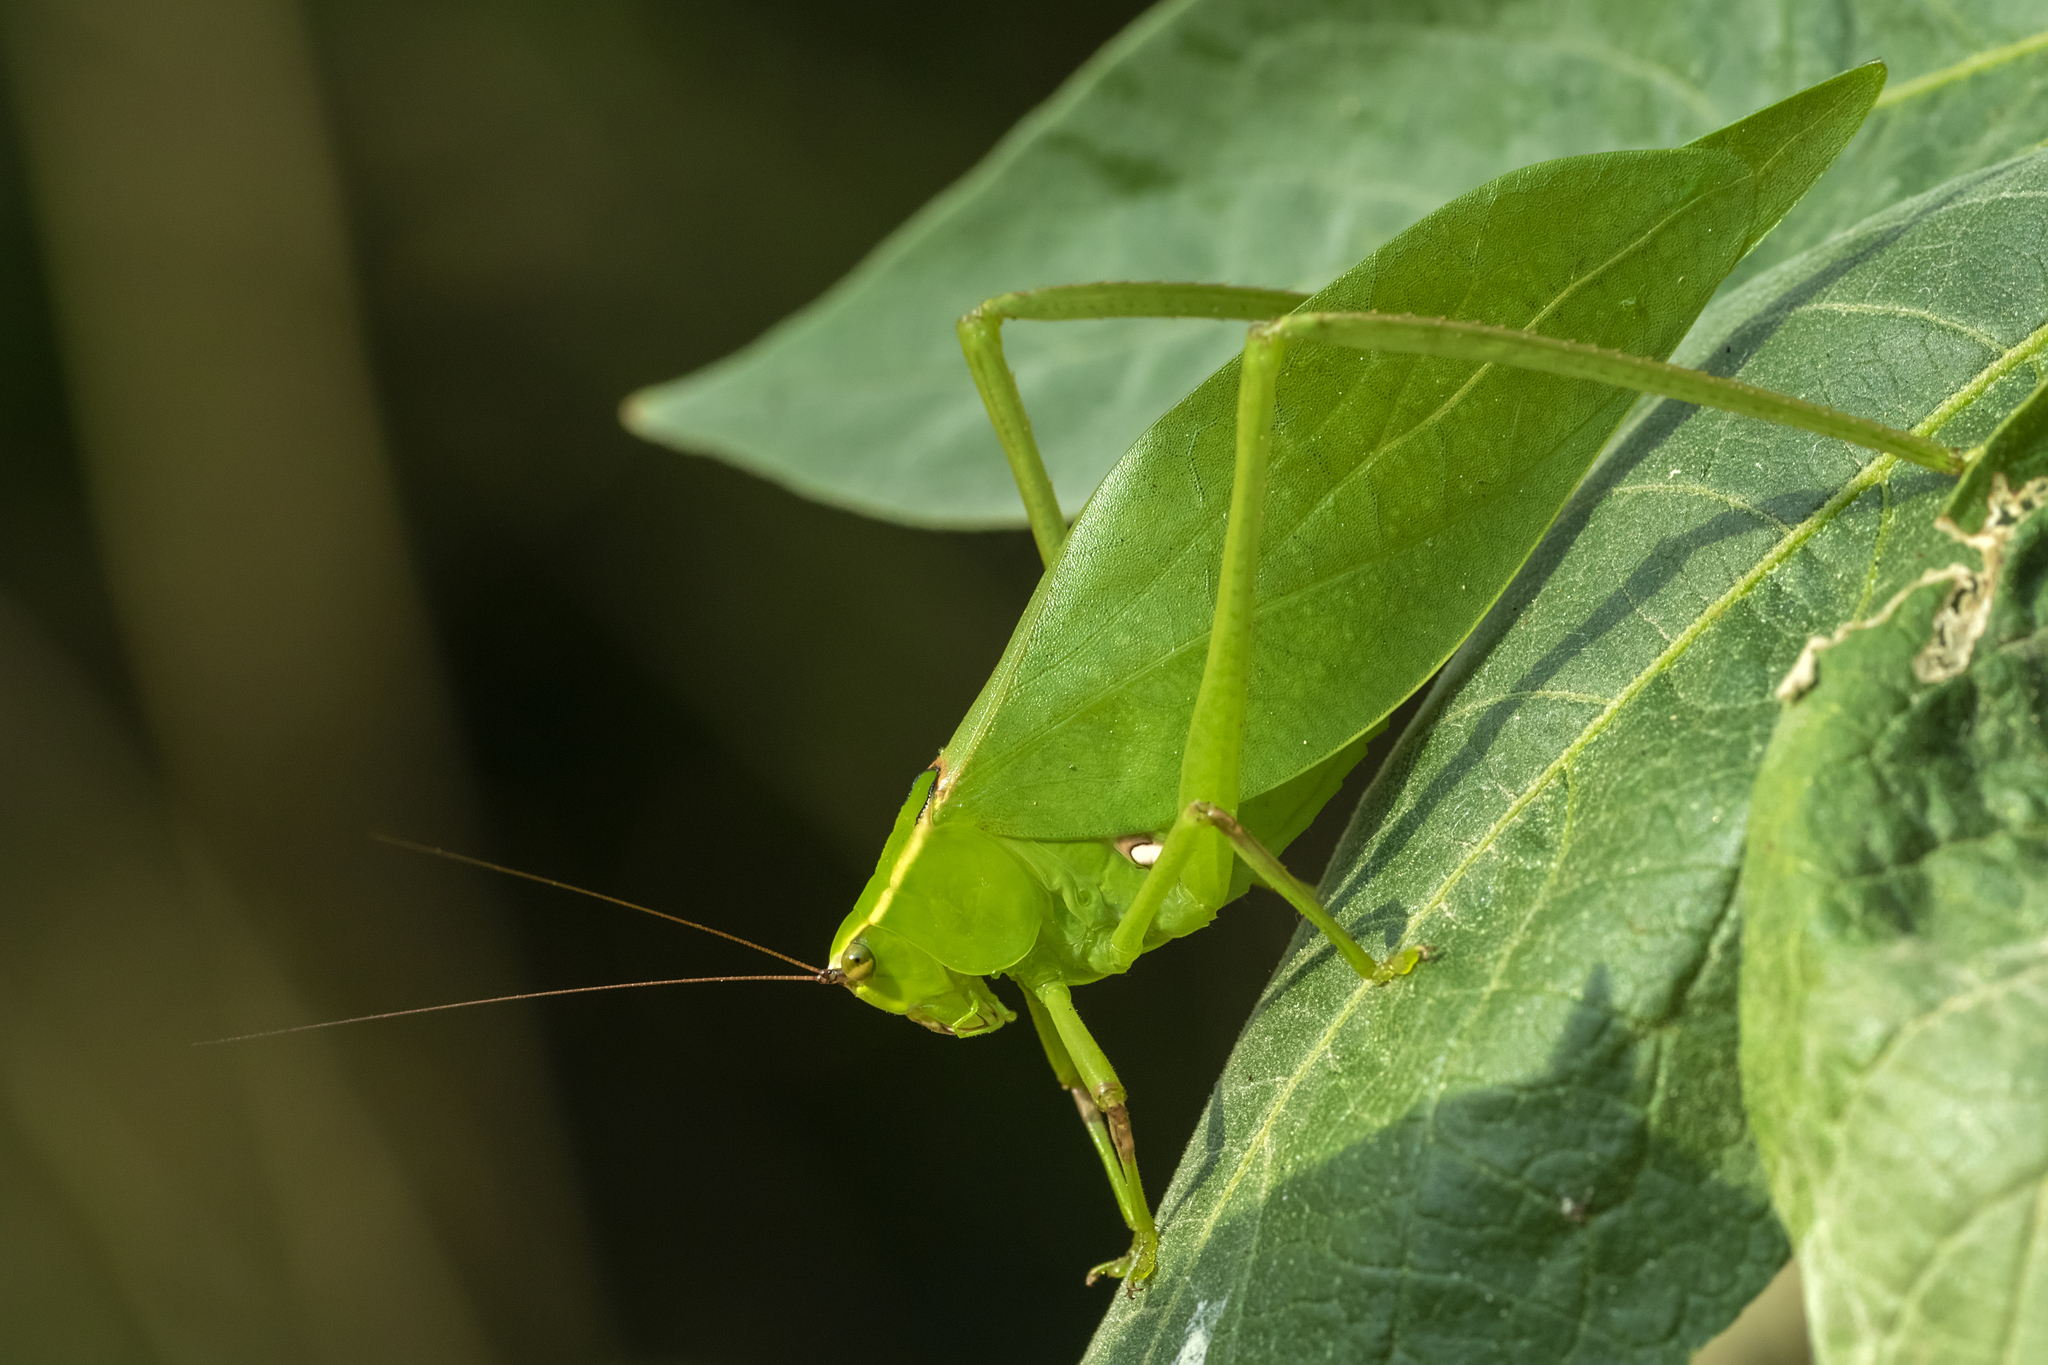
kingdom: Animalia
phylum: Arthropoda
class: Insecta
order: Orthoptera
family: Tettigoniidae
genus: Stilpnochlora
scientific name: Stilpnochlora nanna
